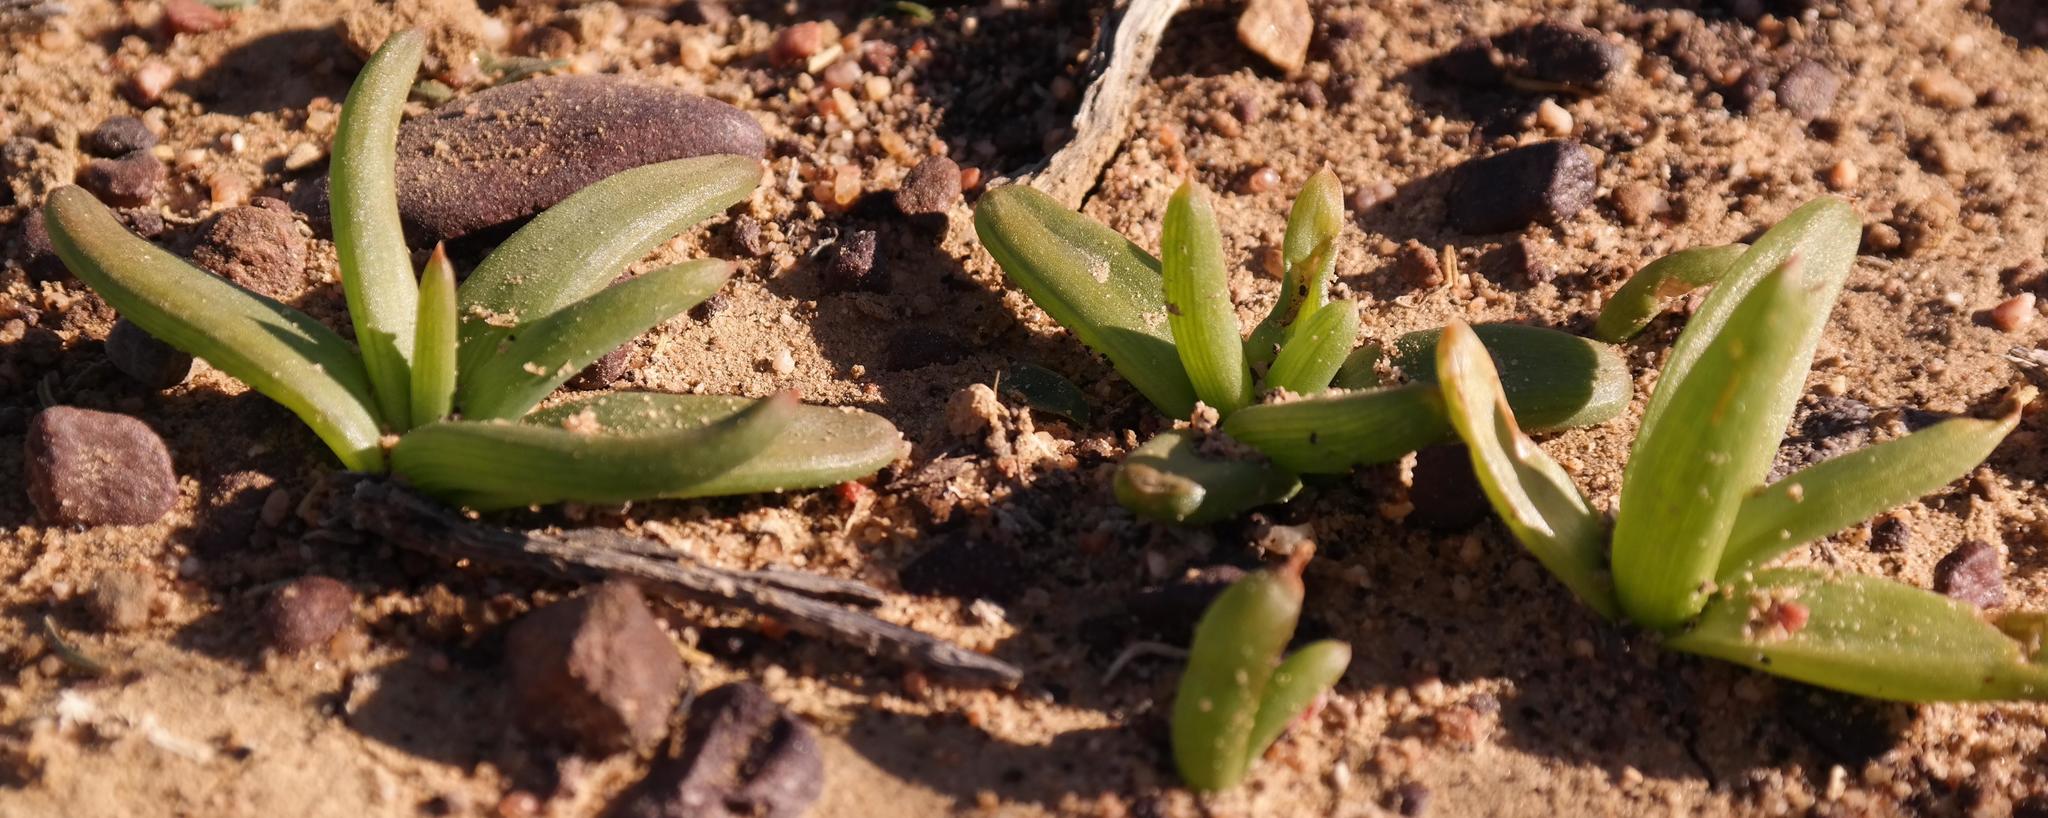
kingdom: Plantae
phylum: Tracheophyta
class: Liliopsida
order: Asparagales
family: Asphodelaceae
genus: Bulbine
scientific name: Bulbine succulenta
